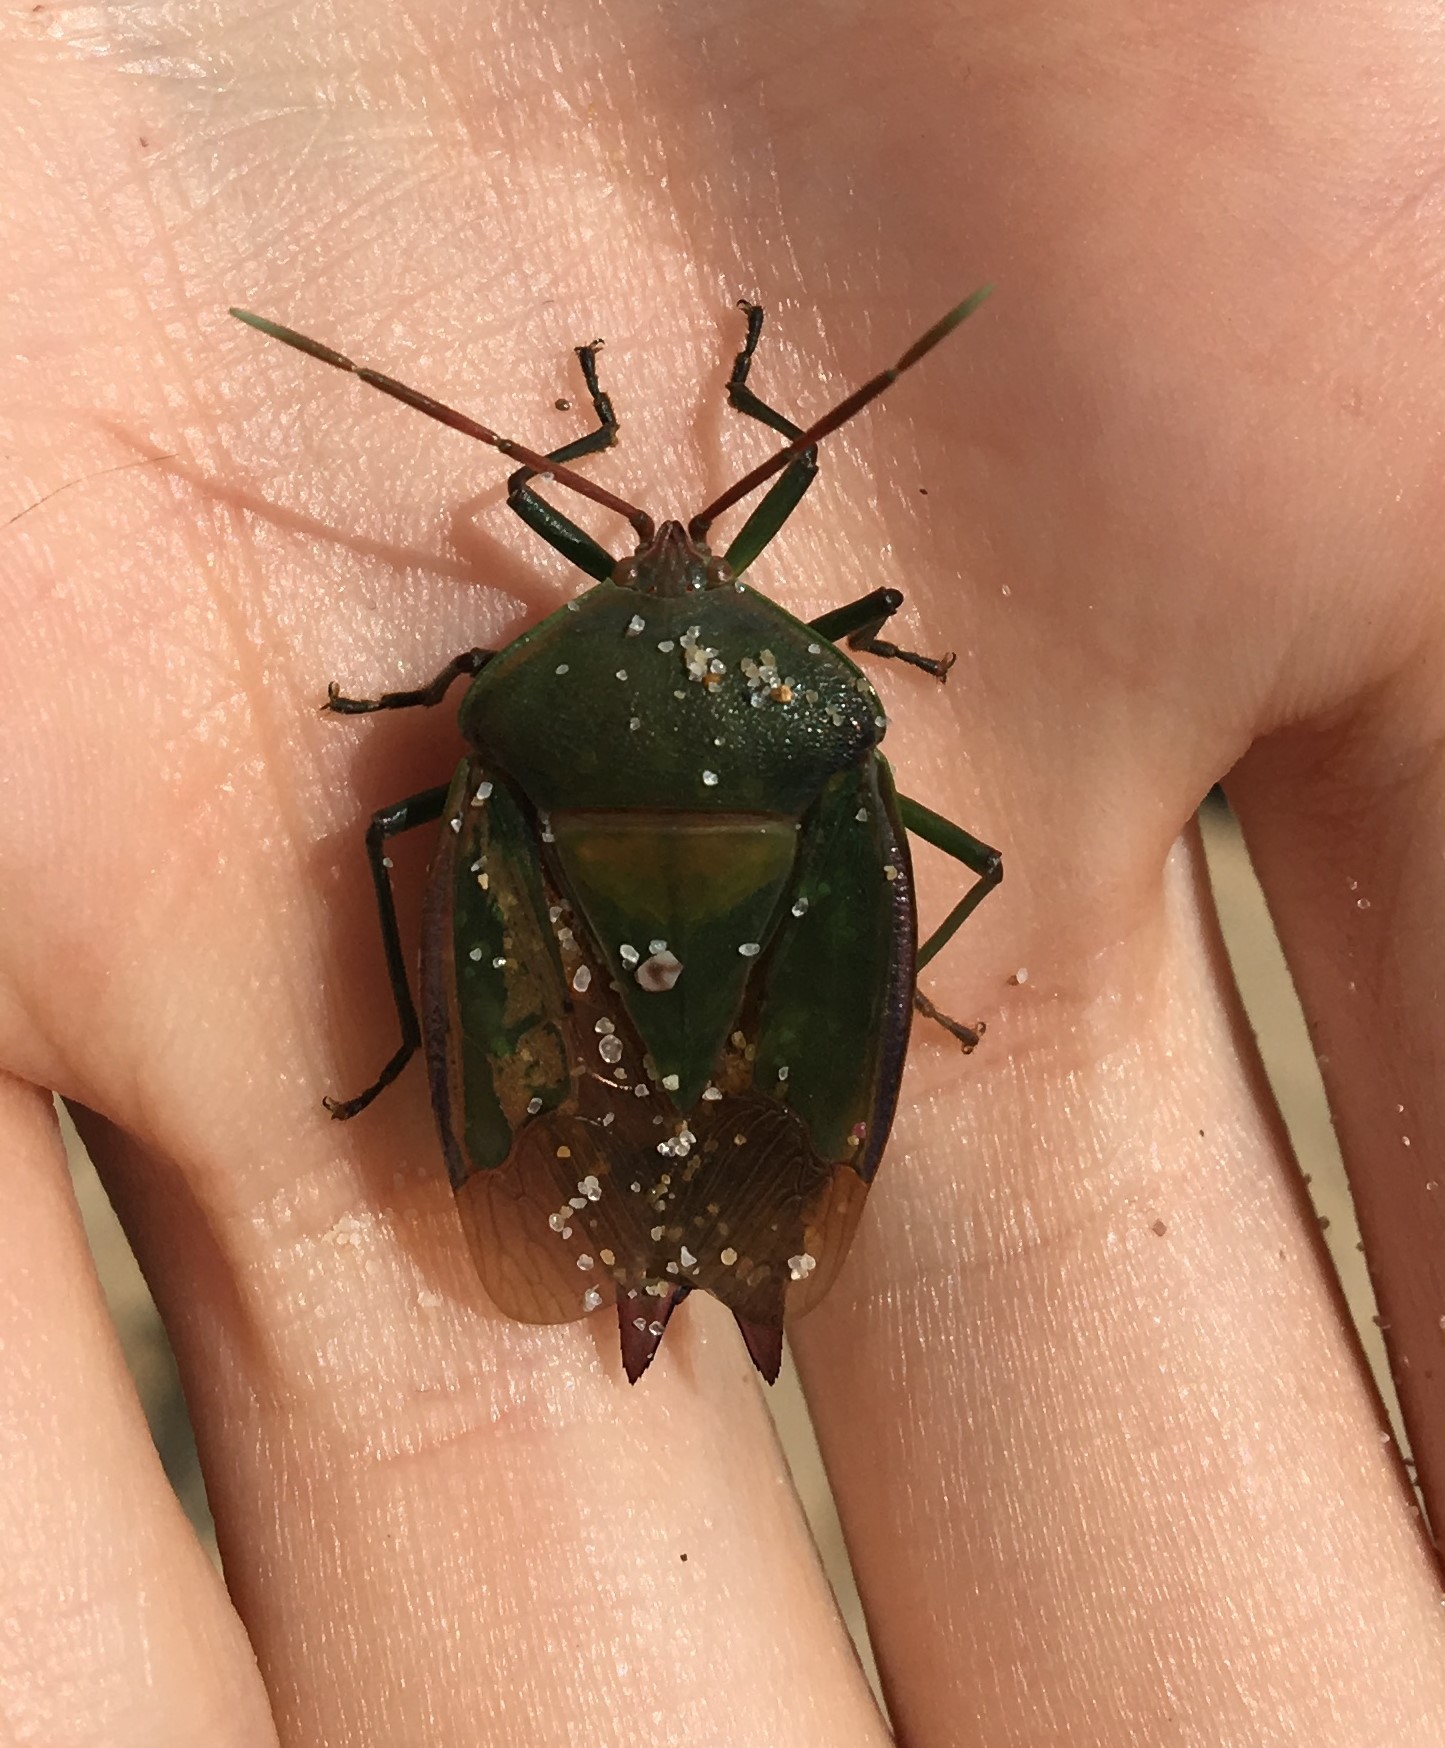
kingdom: Animalia
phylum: Arthropoda
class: Insecta
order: Hemiptera
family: Tessaratomidae
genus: Lyramorpha
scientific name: Lyramorpha rosea
